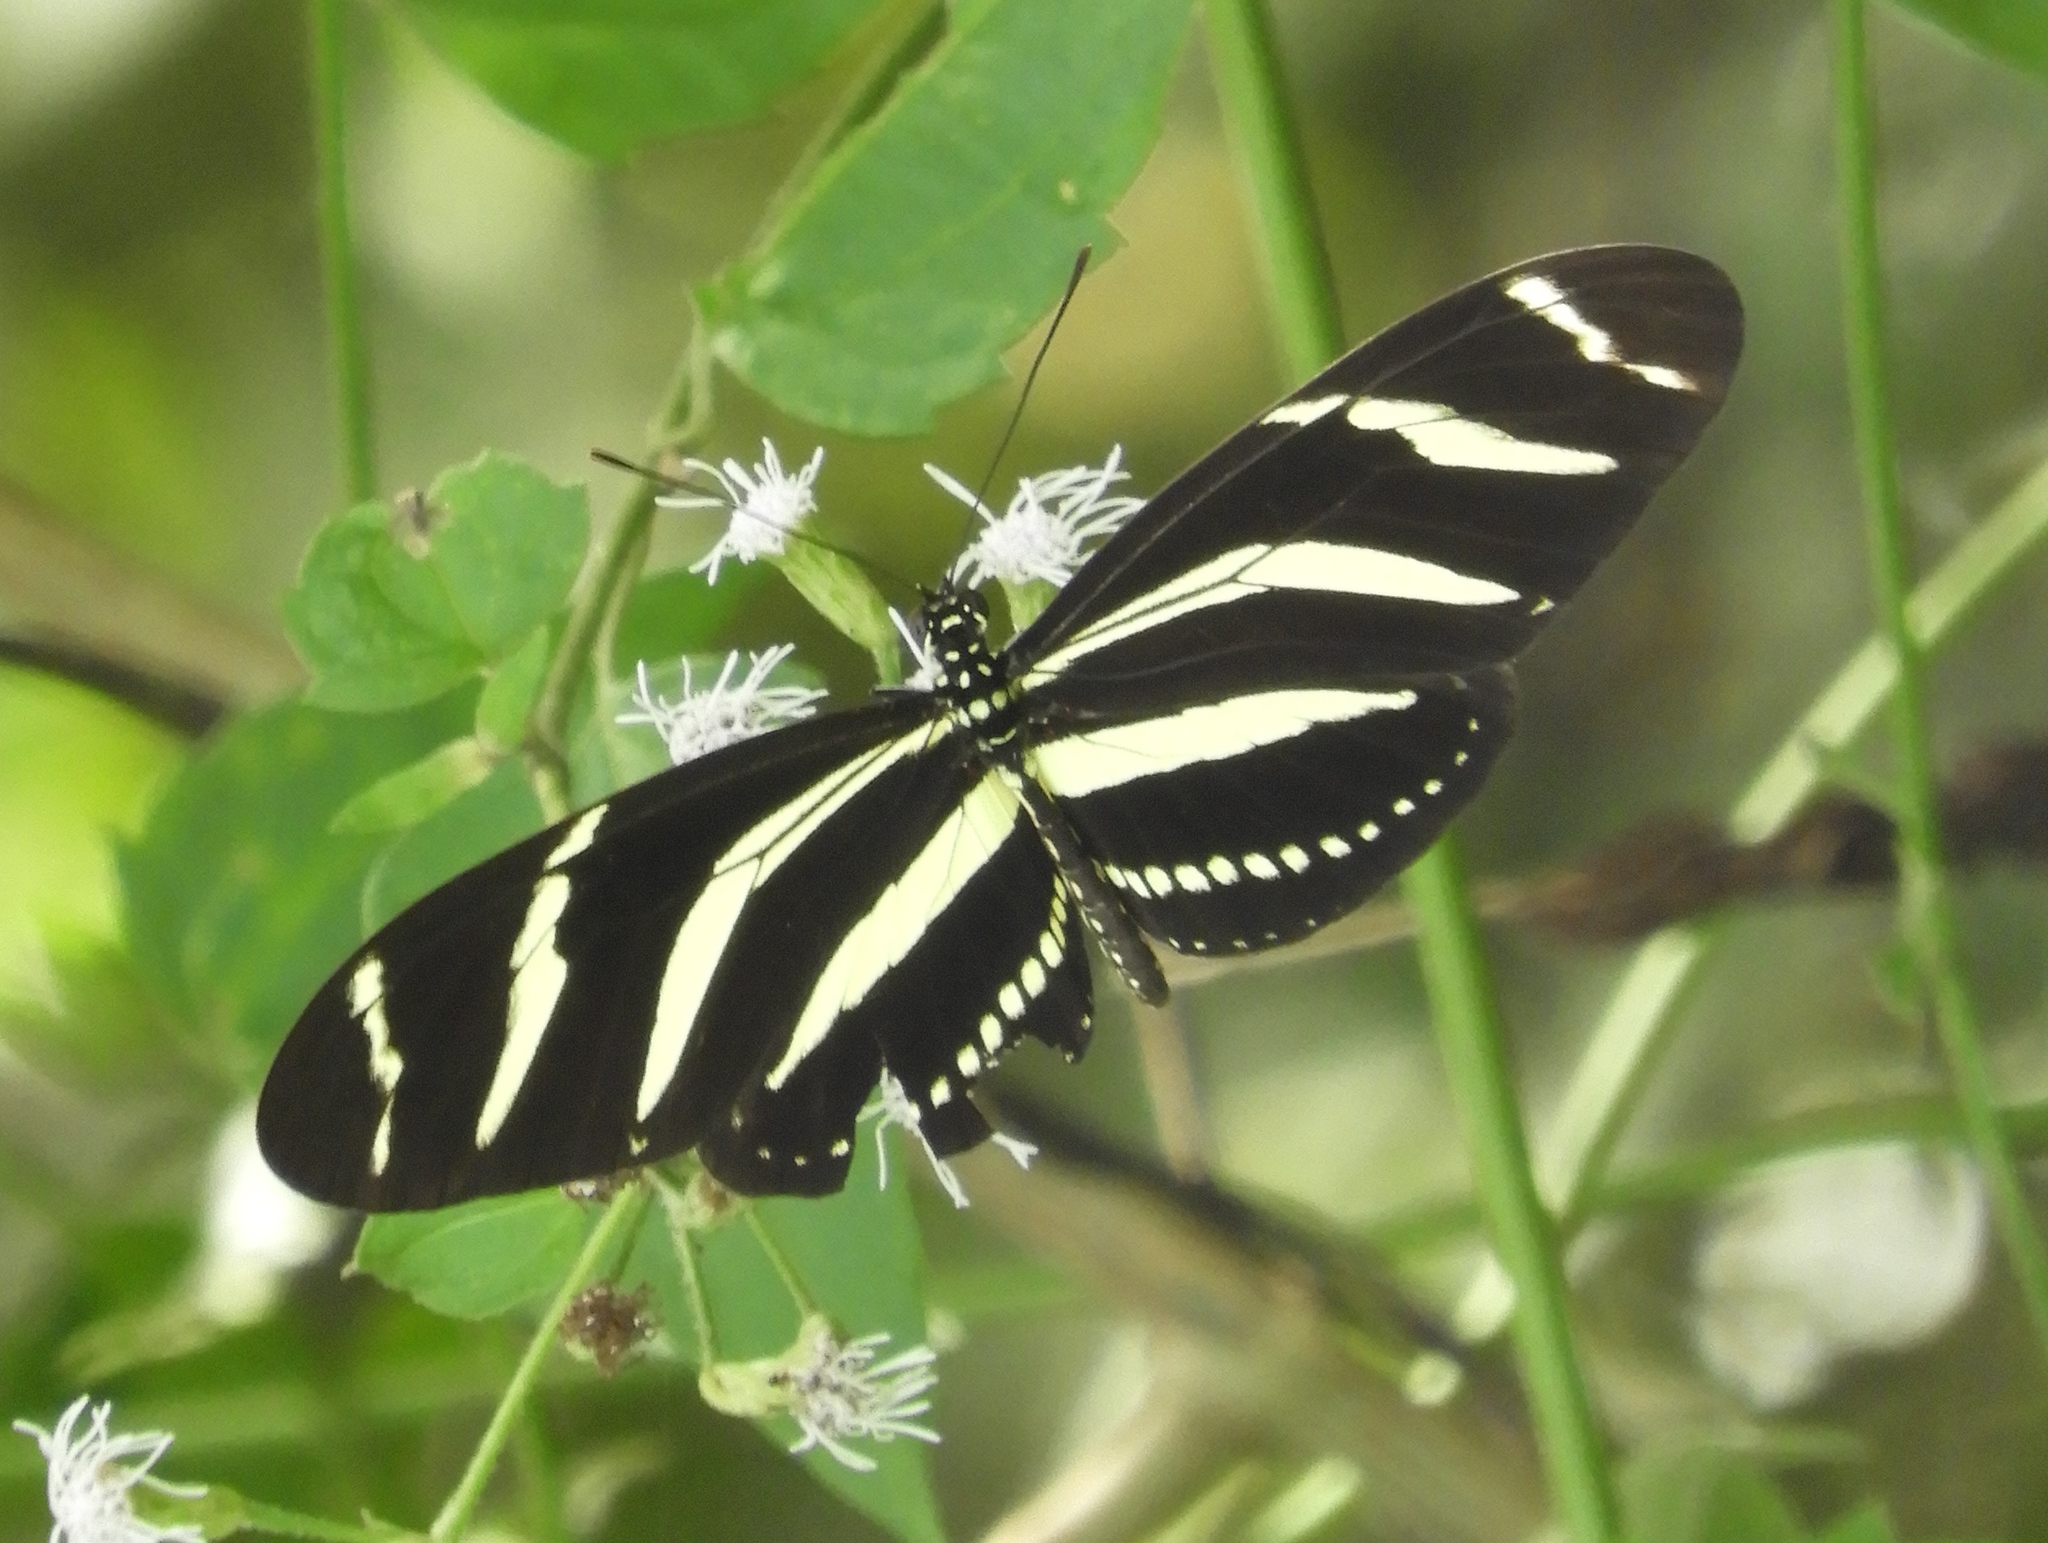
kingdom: Animalia
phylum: Arthropoda
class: Insecta
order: Lepidoptera
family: Nymphalidae
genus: Heliconius
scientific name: Heliconius charithonia
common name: Zebra long wing
